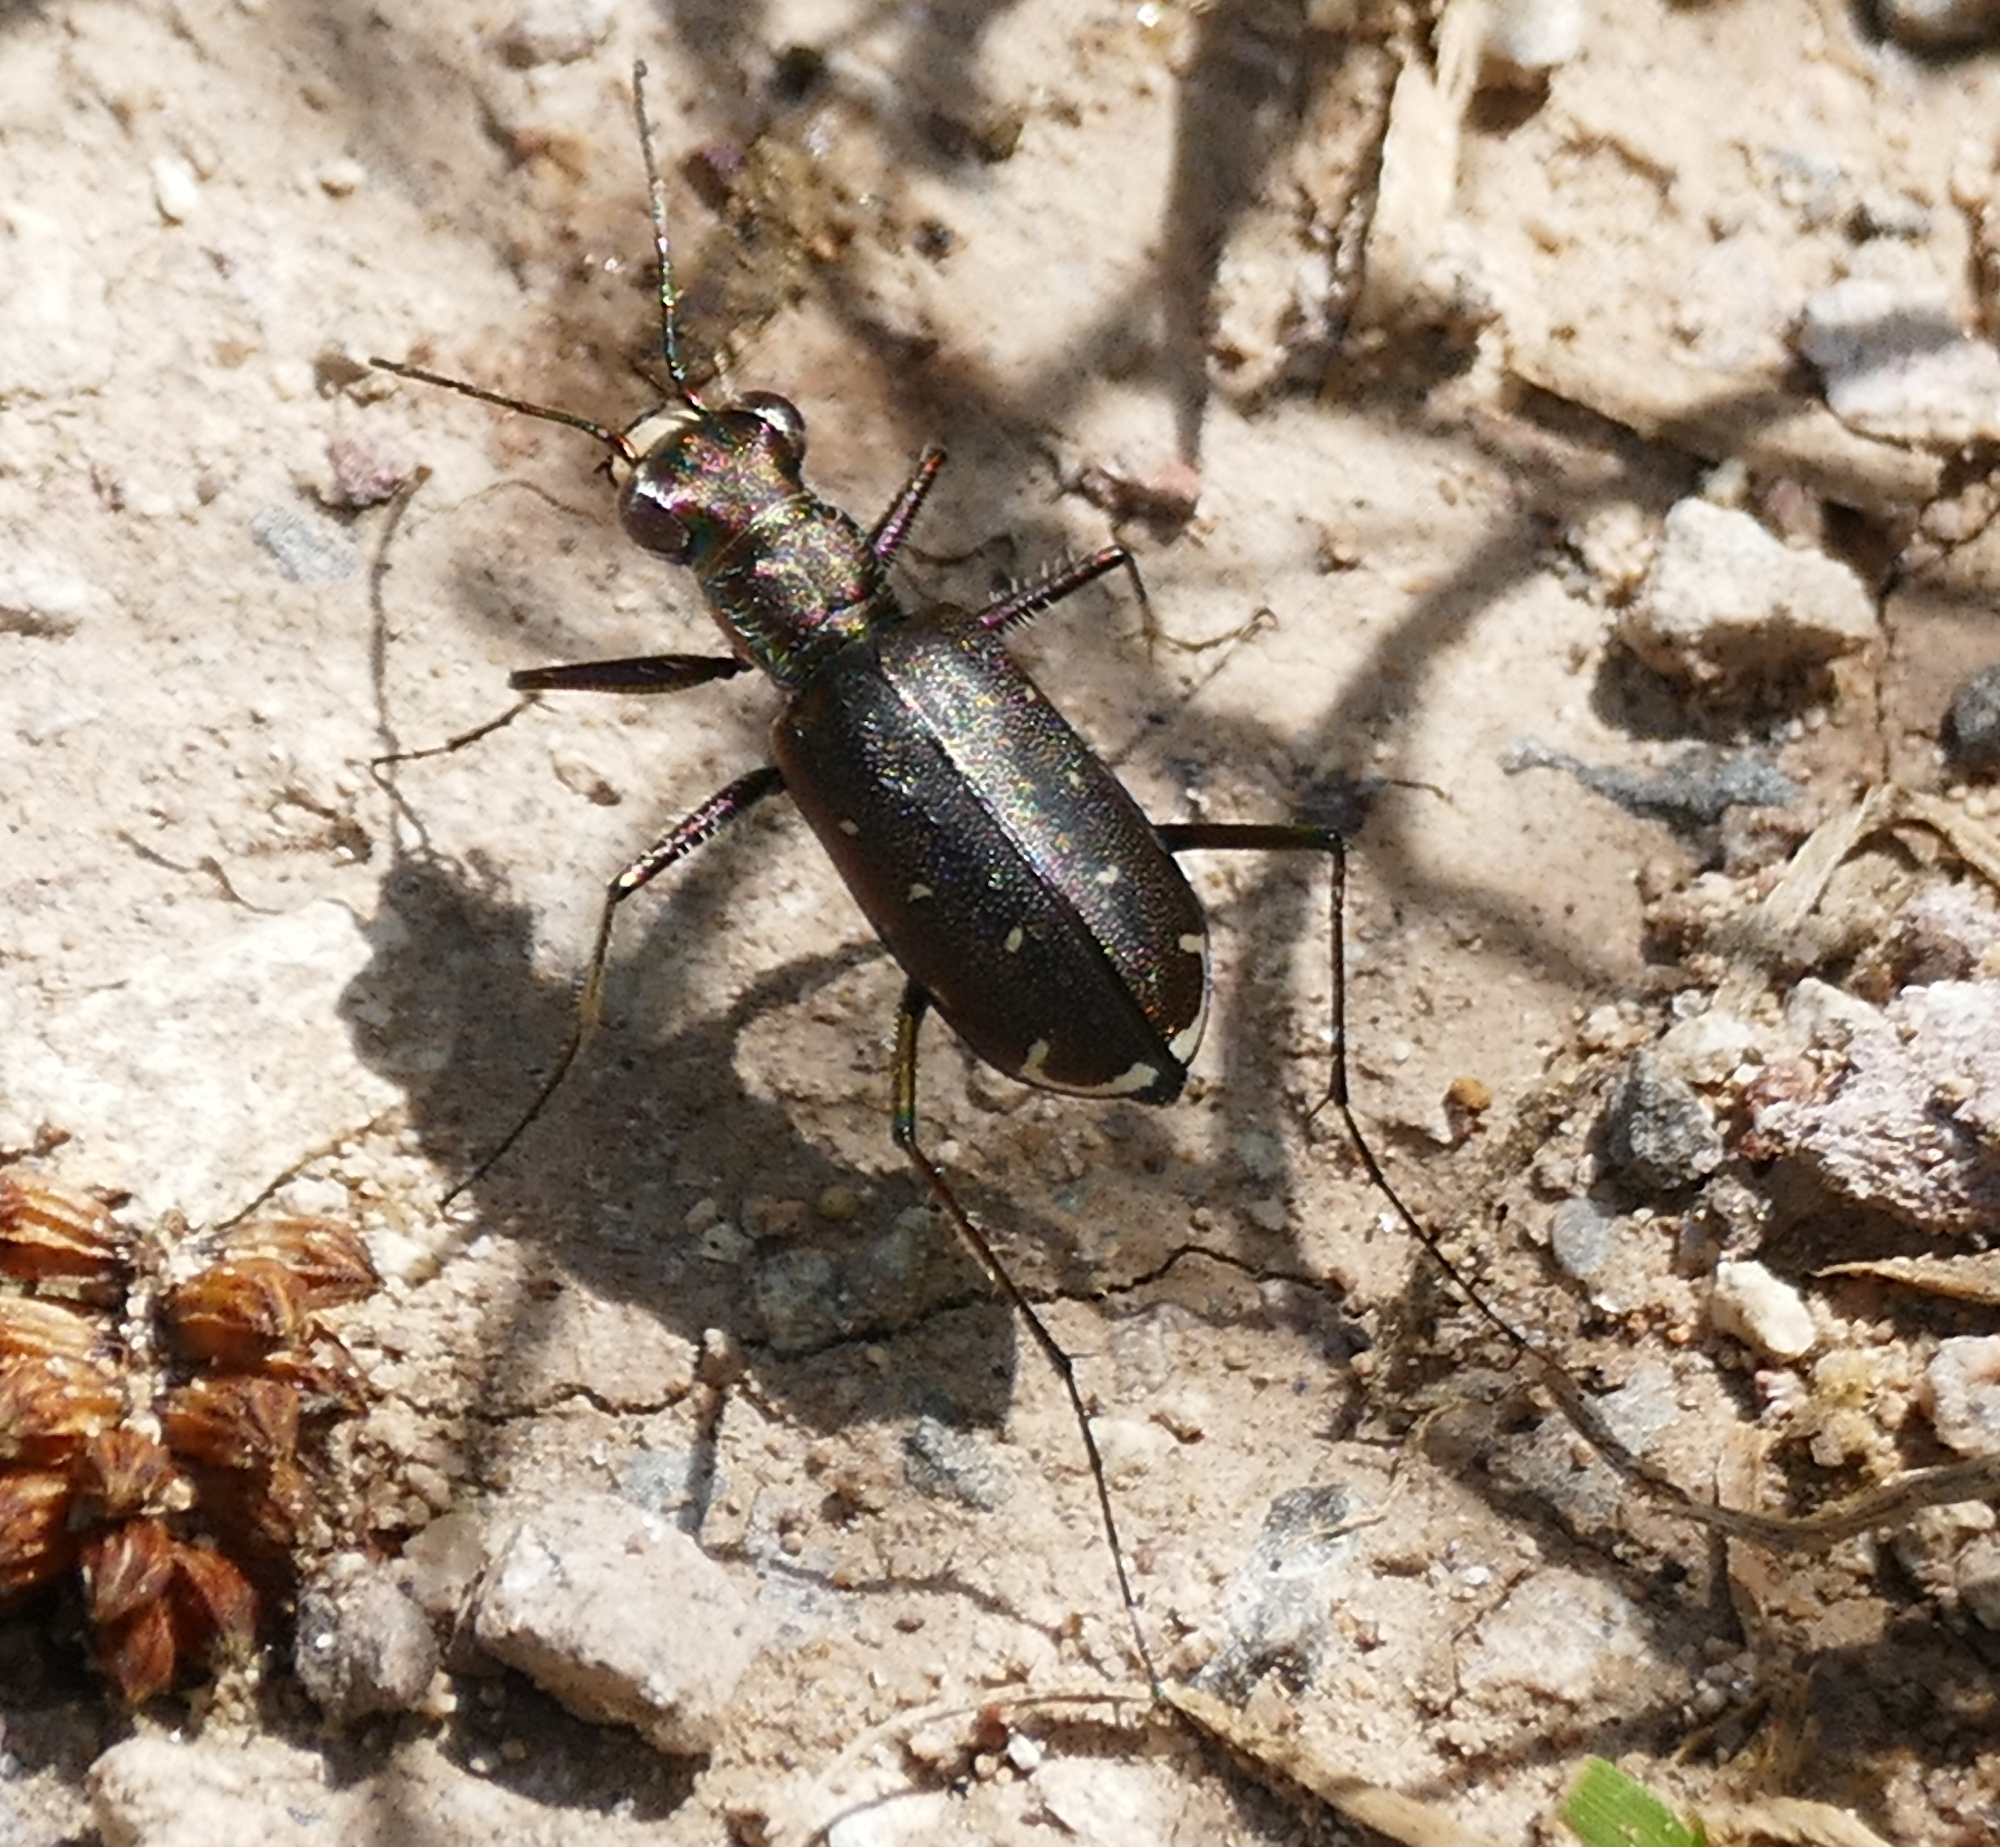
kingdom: Animalia
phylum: Arthropoda
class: Insecta
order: Coleoptera
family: Carabidae
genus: Cicindela
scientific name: Cicindela punctulata
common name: Punctured tiger beetle
